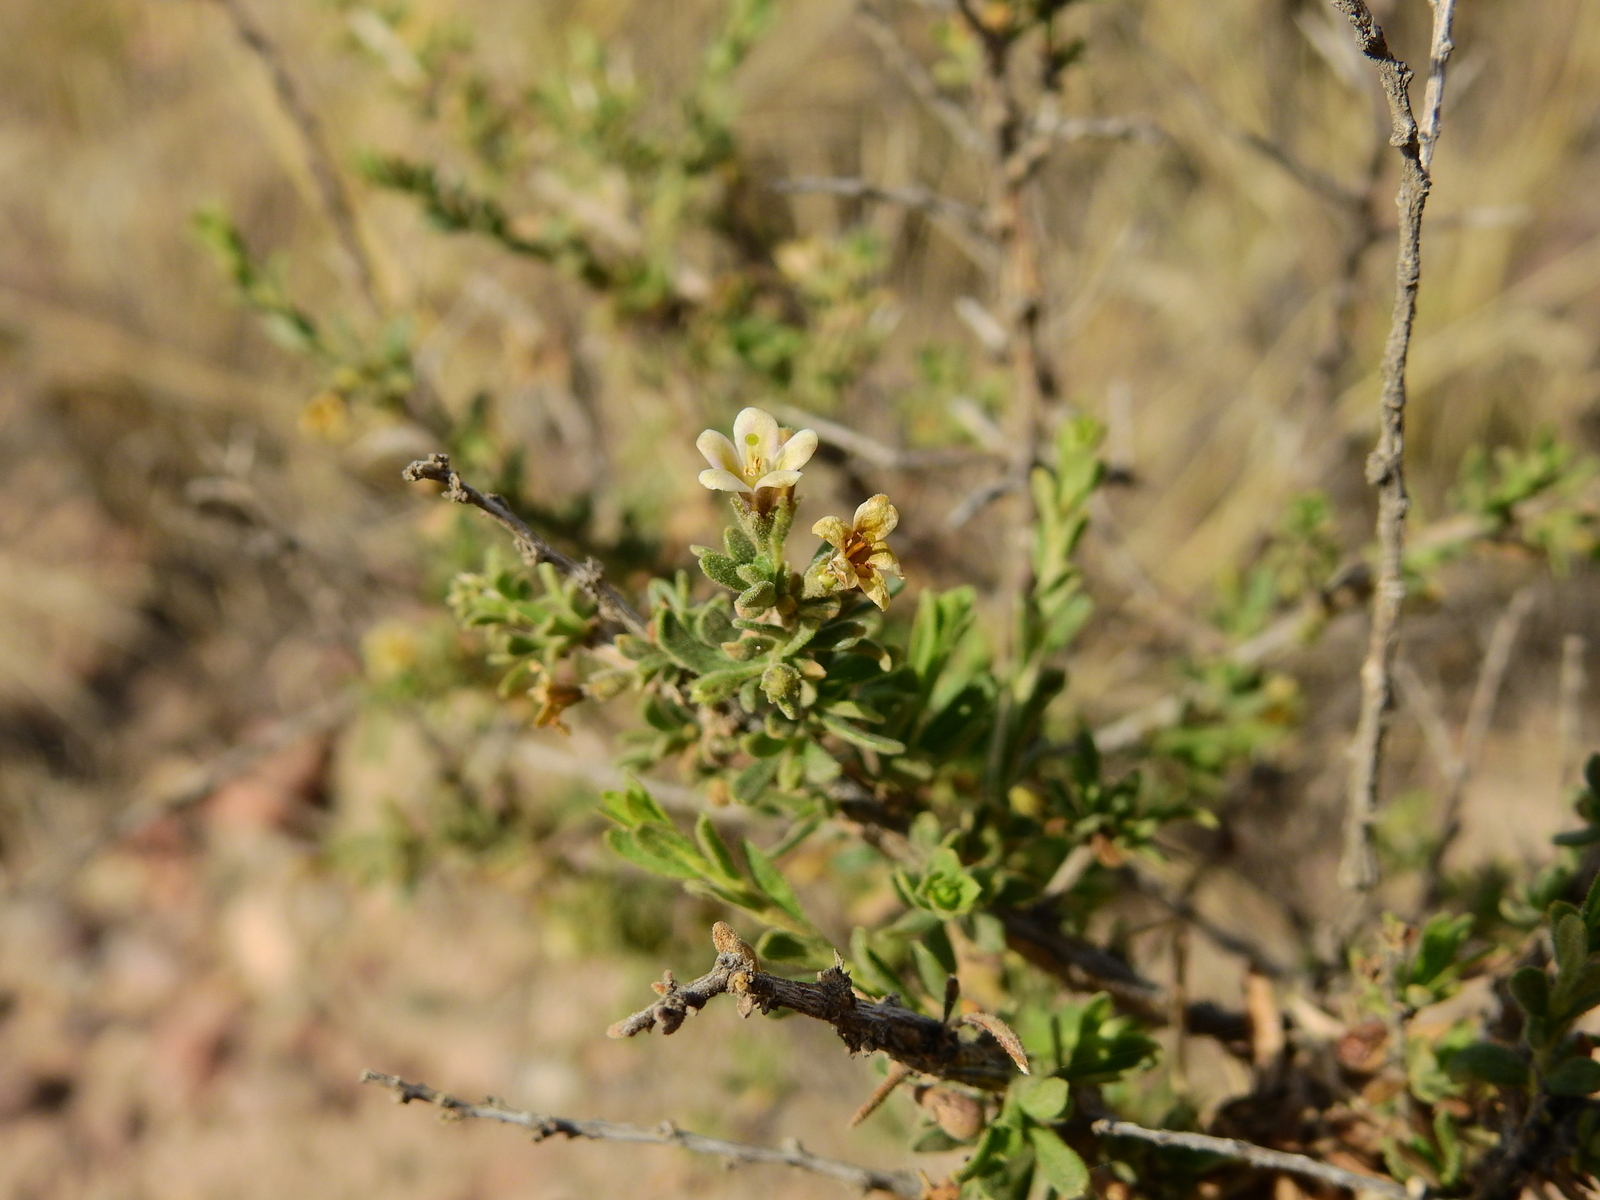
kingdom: Plantae
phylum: Tracheophyta
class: Magnoliopsida
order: Solanales
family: Solanaceae
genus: Lycium
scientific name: Lycium chilense
